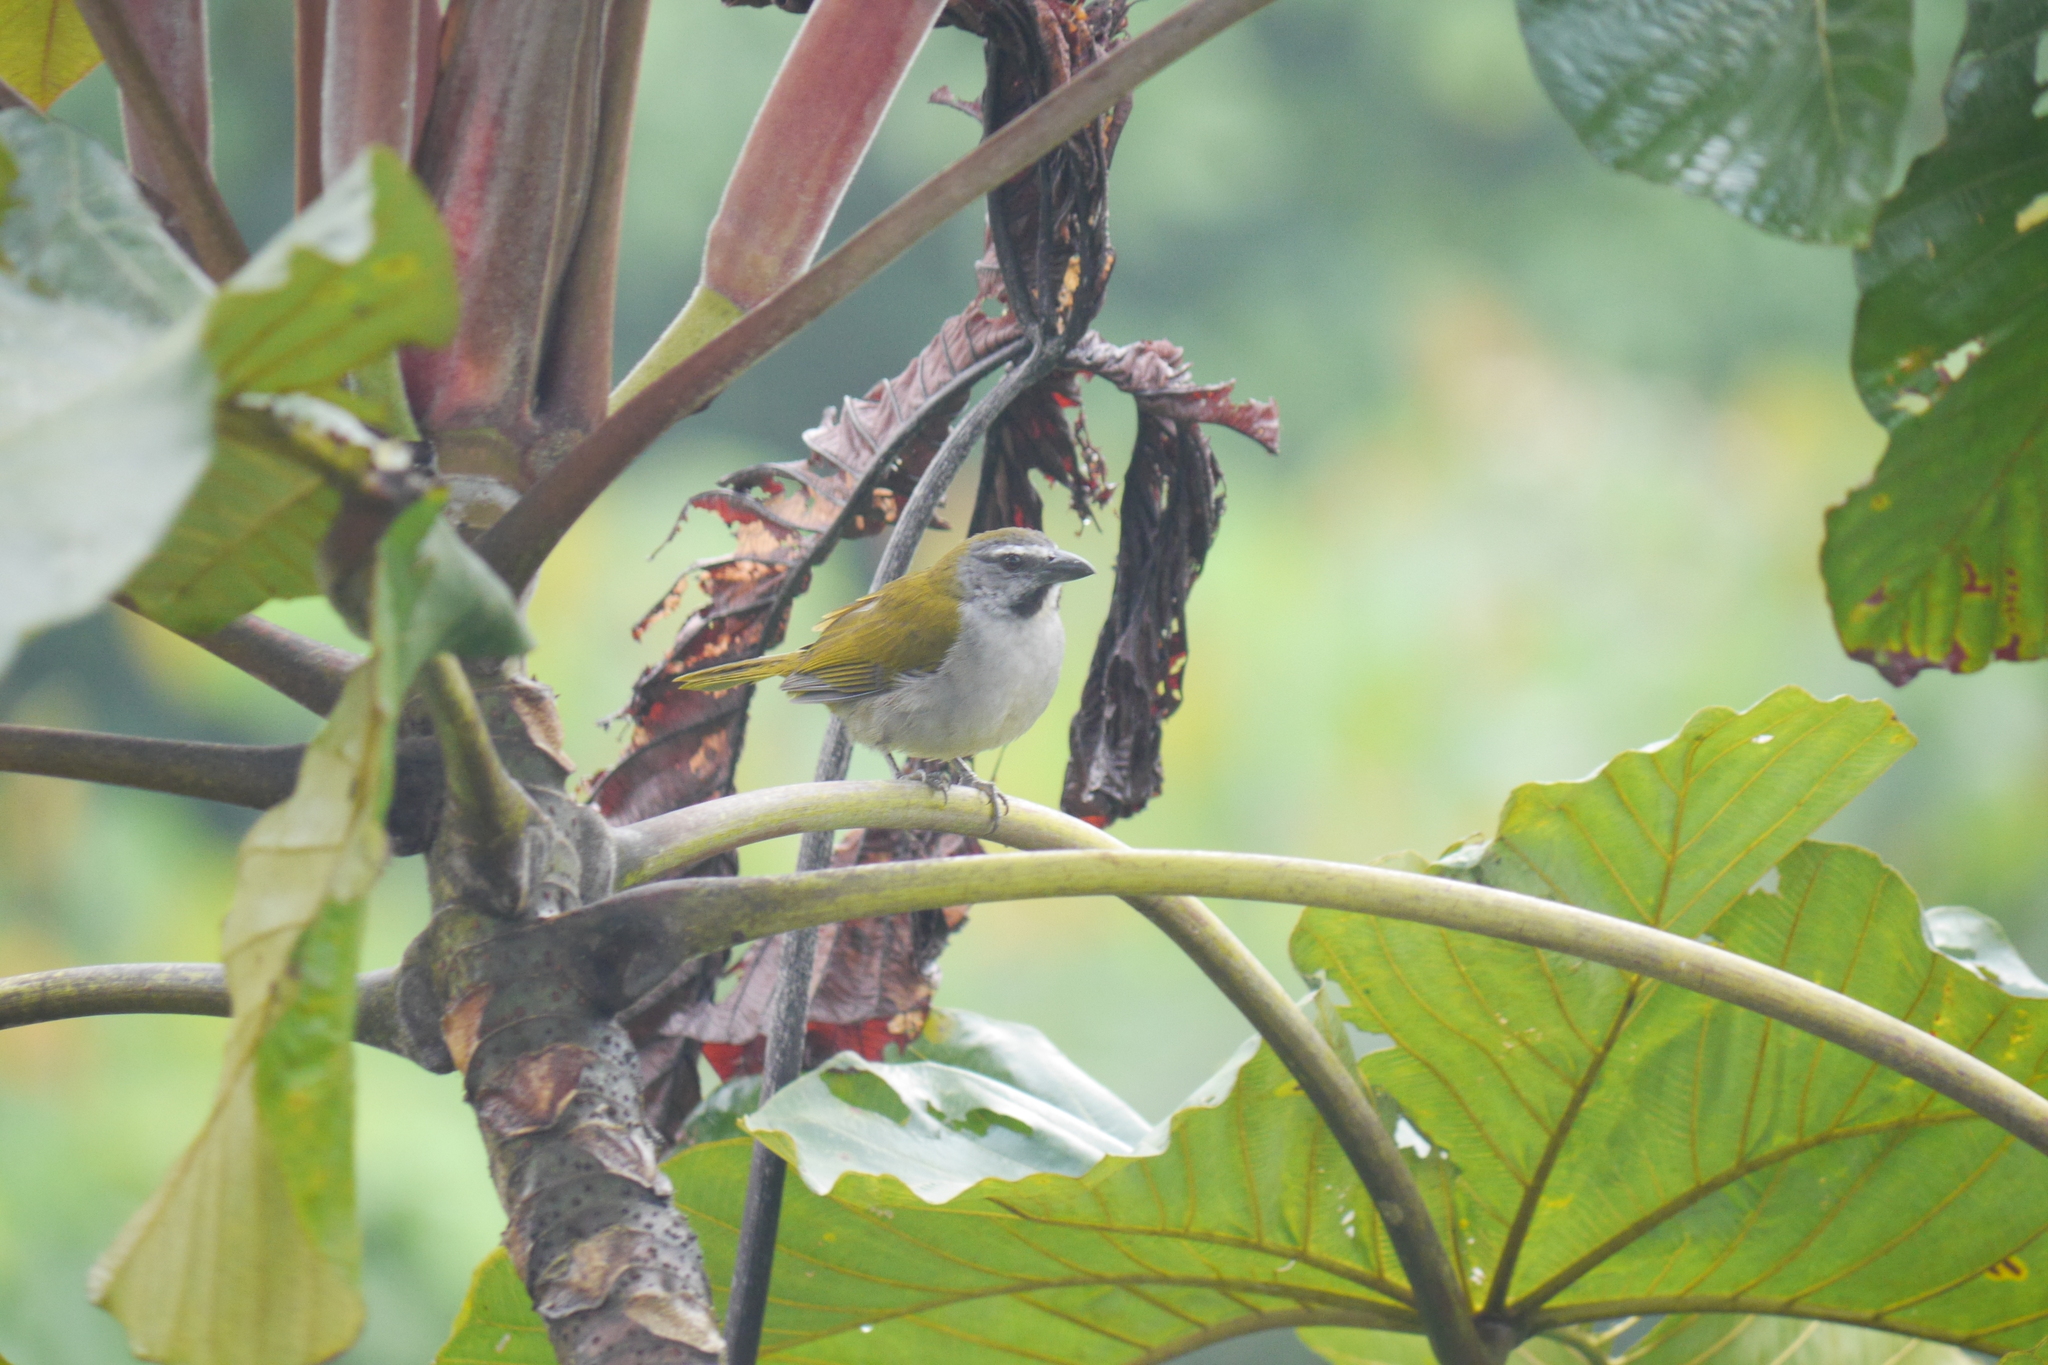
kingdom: Animalia
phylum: Chordata
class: Aves
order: Passeriformes
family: Thraupidae
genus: Saltator
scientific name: Saltator maximus
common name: Buff-throated saltator
